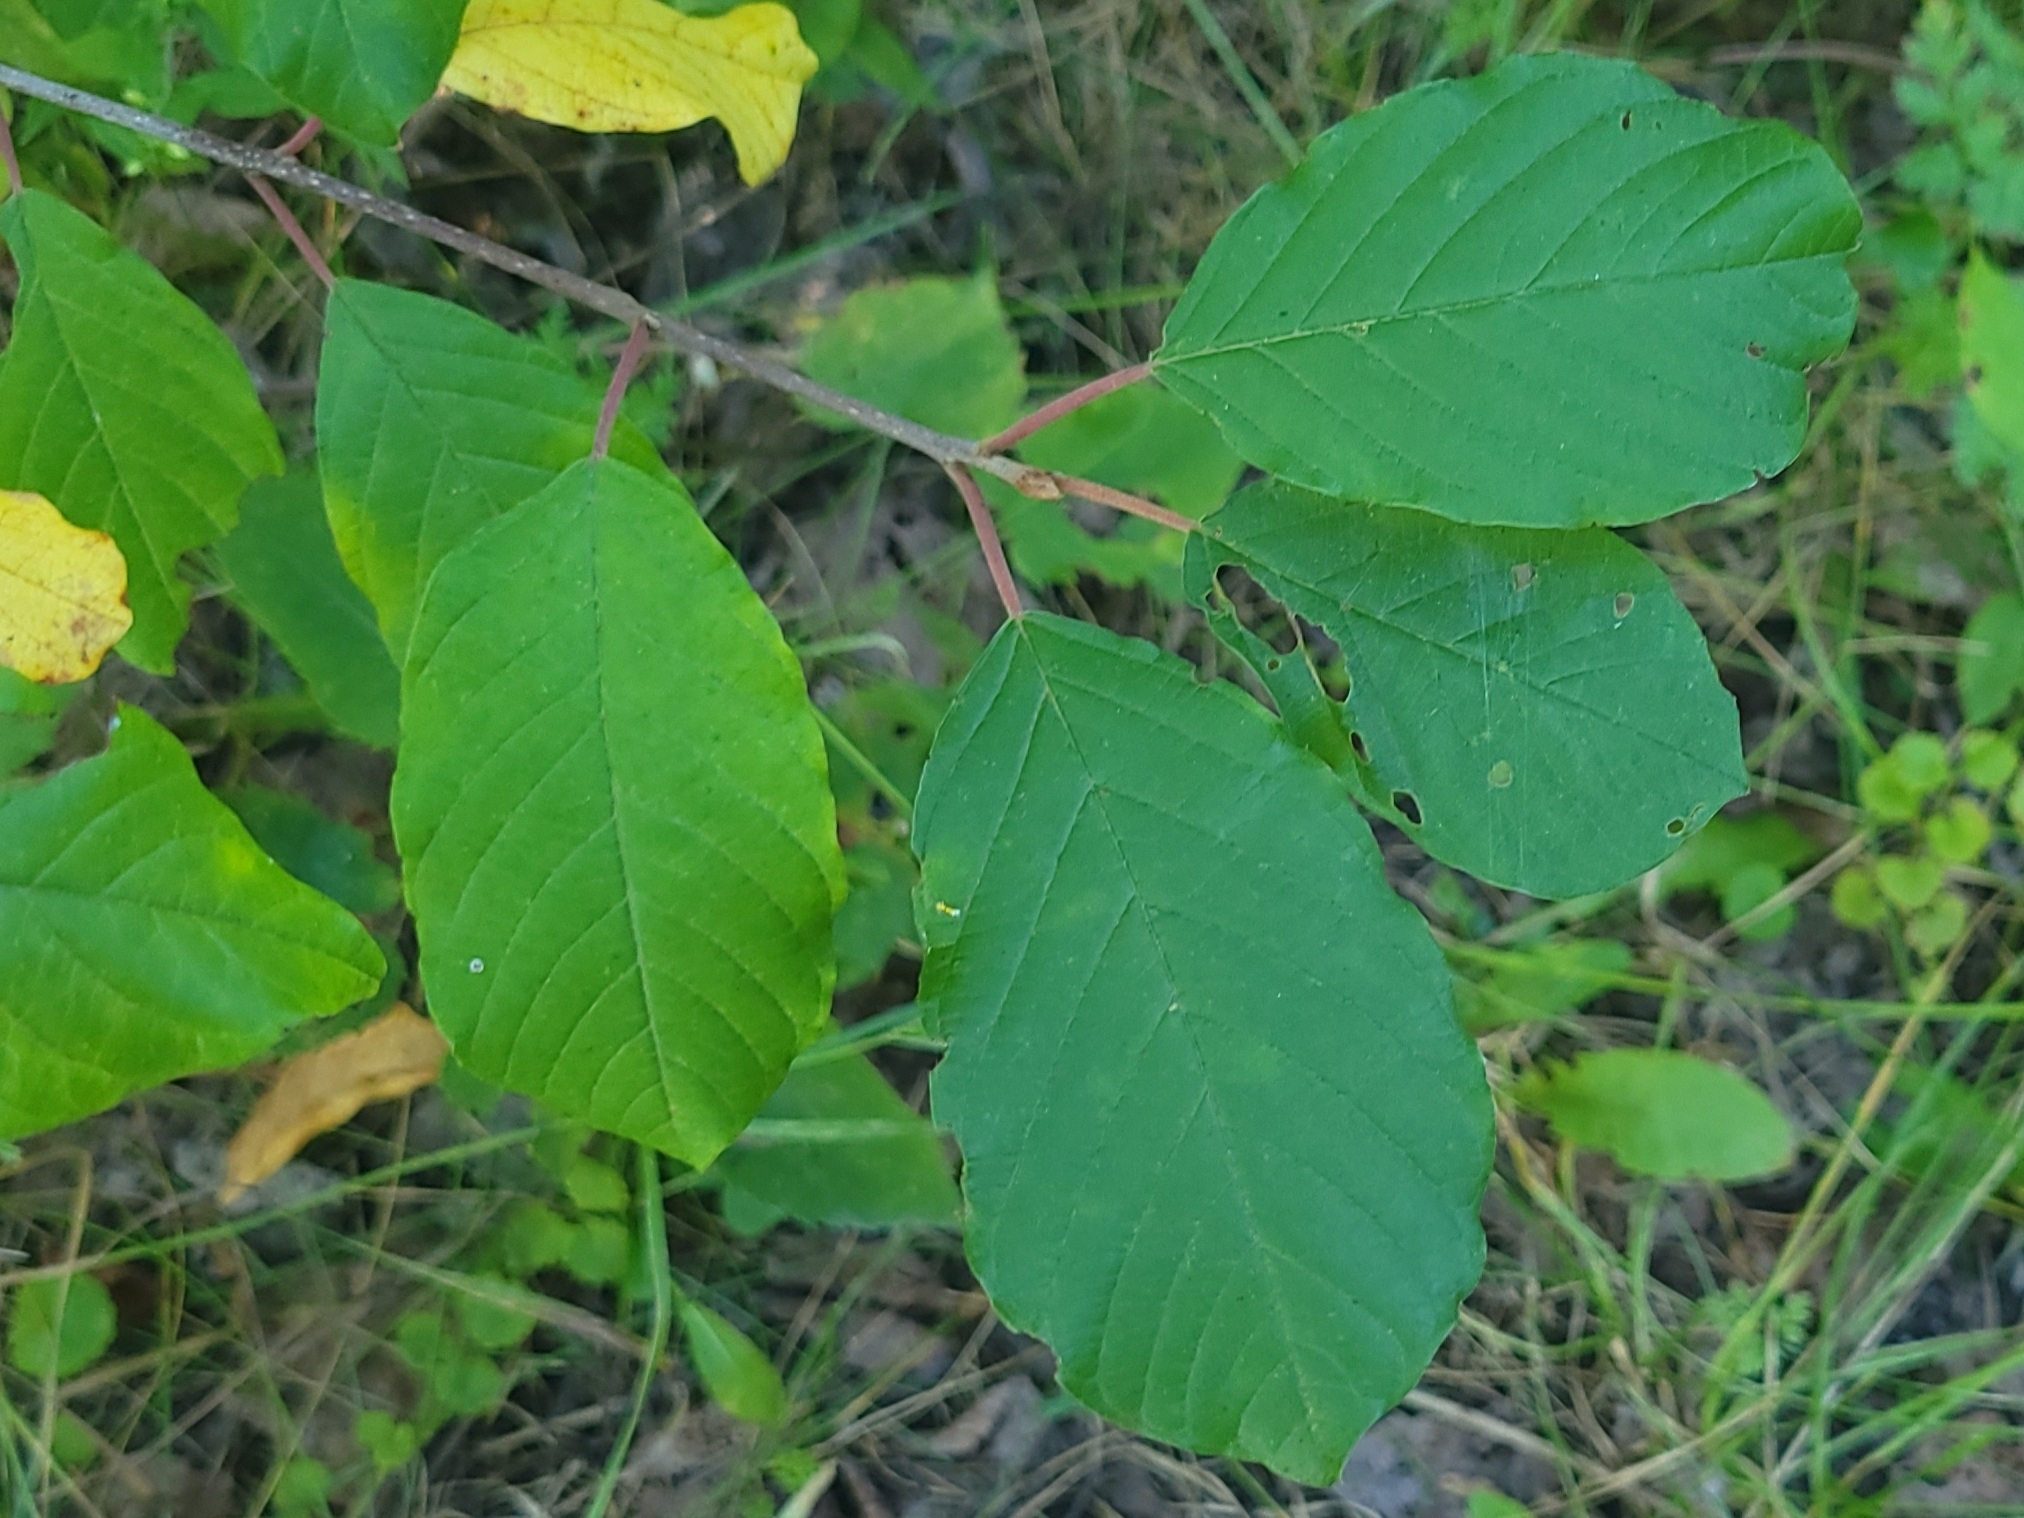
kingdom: Plantae
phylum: Tracheophyta
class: Magnoliopsida
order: Rosales
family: Rhamnaceae
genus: Frangula
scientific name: Frangula alnus
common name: Alder buckthorn
